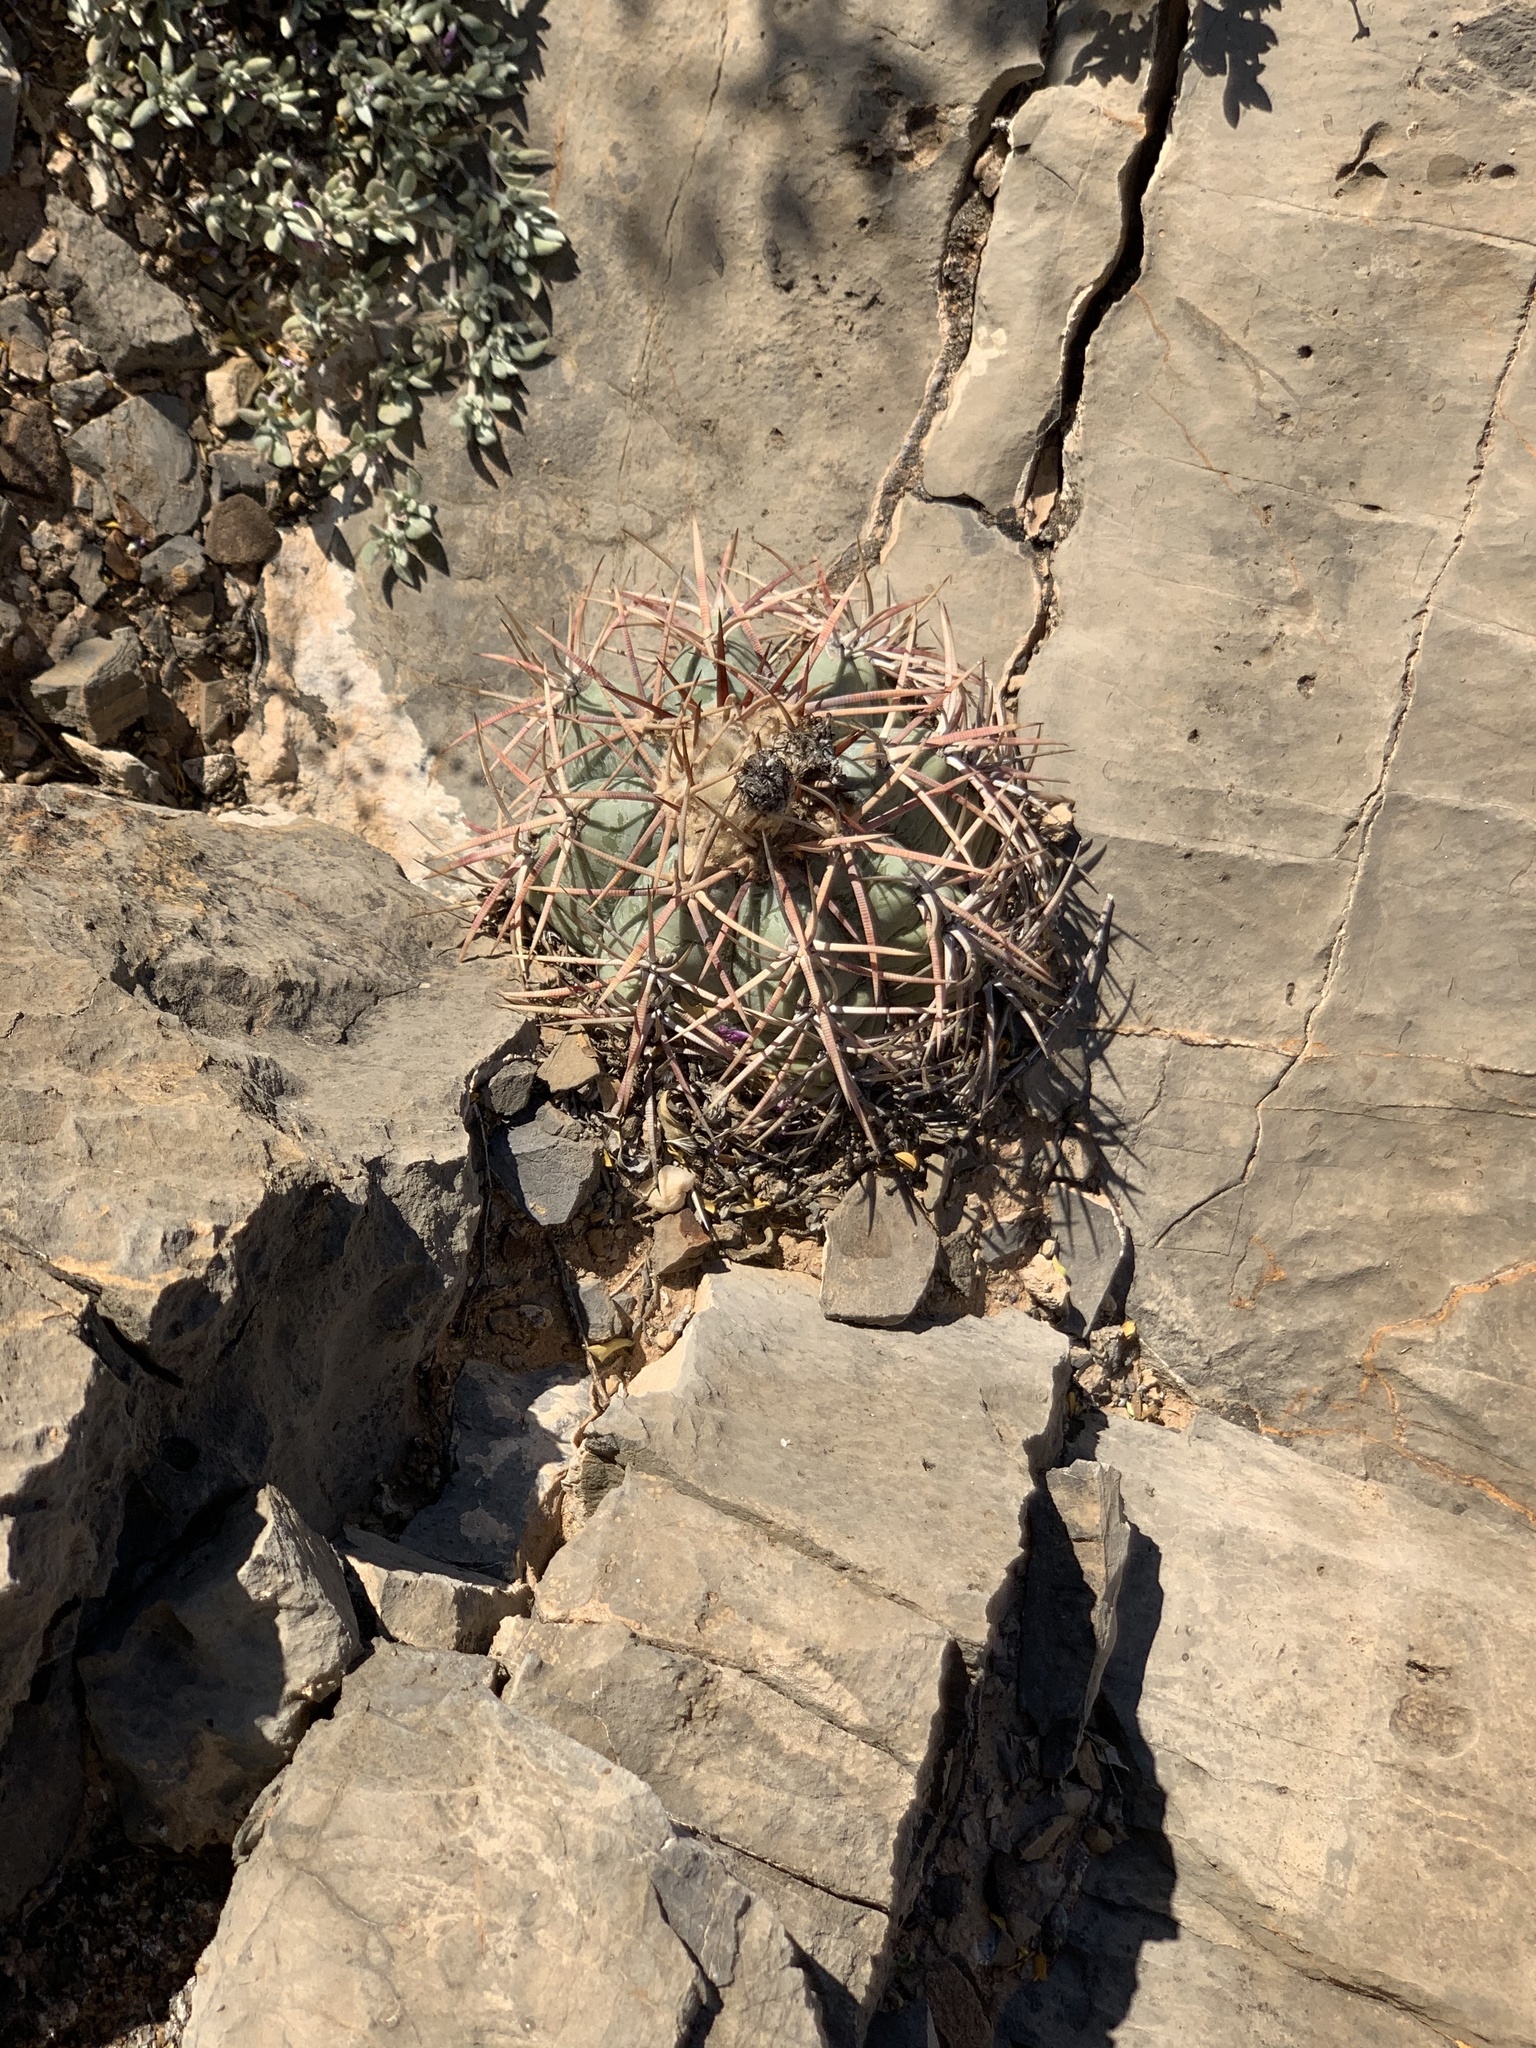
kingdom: Plantae
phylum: Tracheophyta
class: Magnoliopsida
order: Caryophyllales
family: Cactaceae
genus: Echinocactus
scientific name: Echinocactus horizonthalonius
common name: Devilshead
